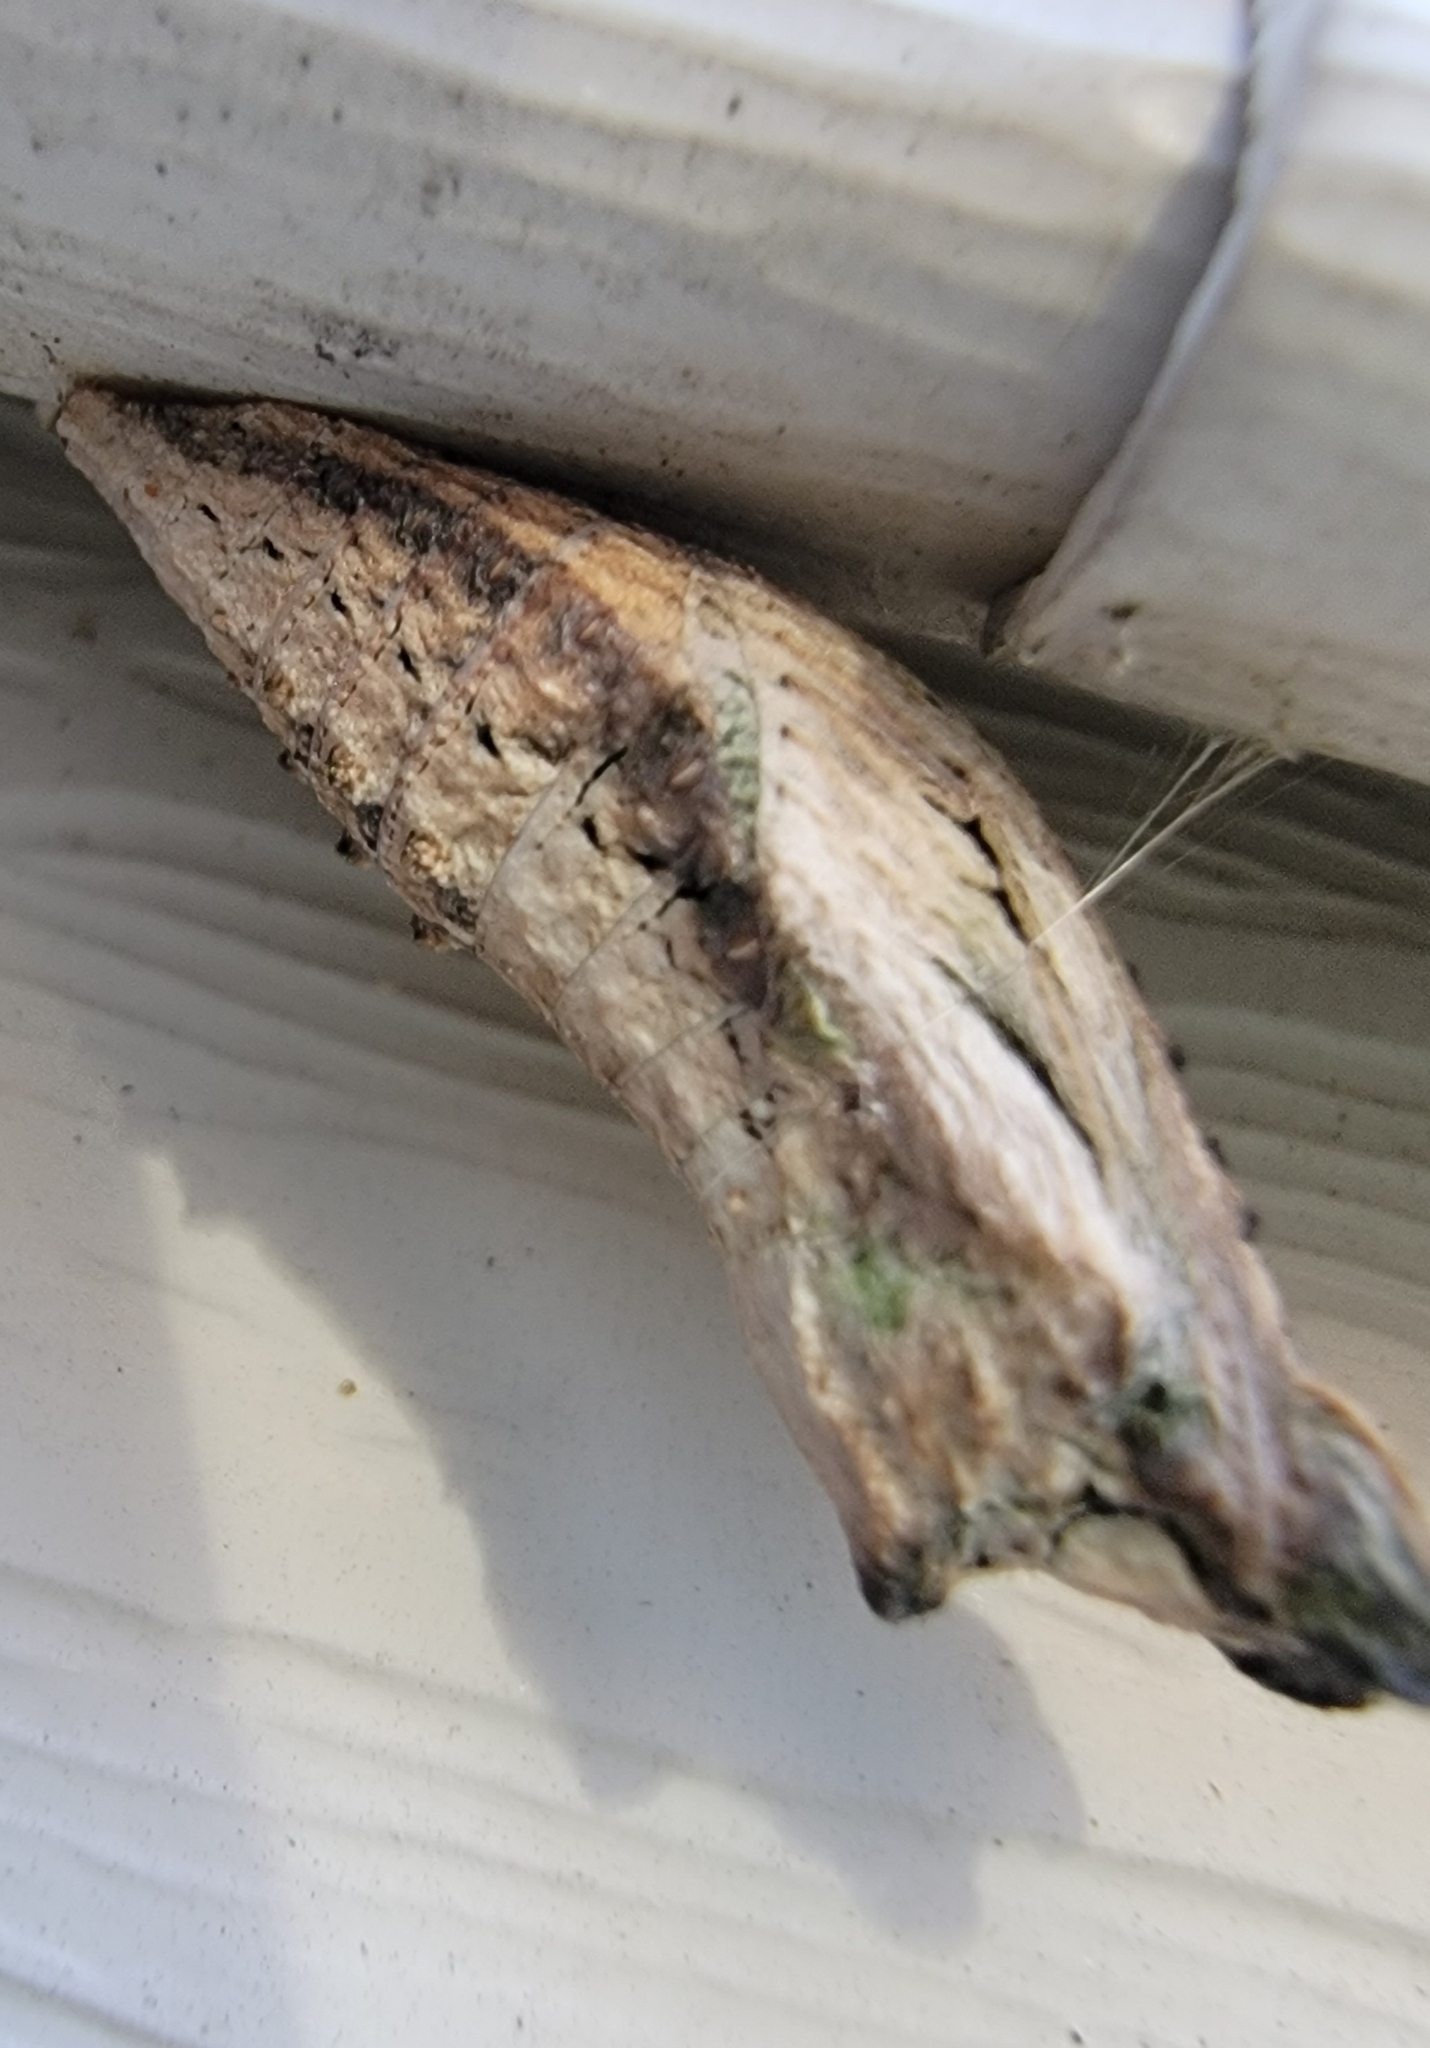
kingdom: Animalia
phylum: Arthropoda
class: Insecta
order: Lepidoptera
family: Papilionidae
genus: Papilio
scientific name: Papilio glaucus
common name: Tiger swallowtail
